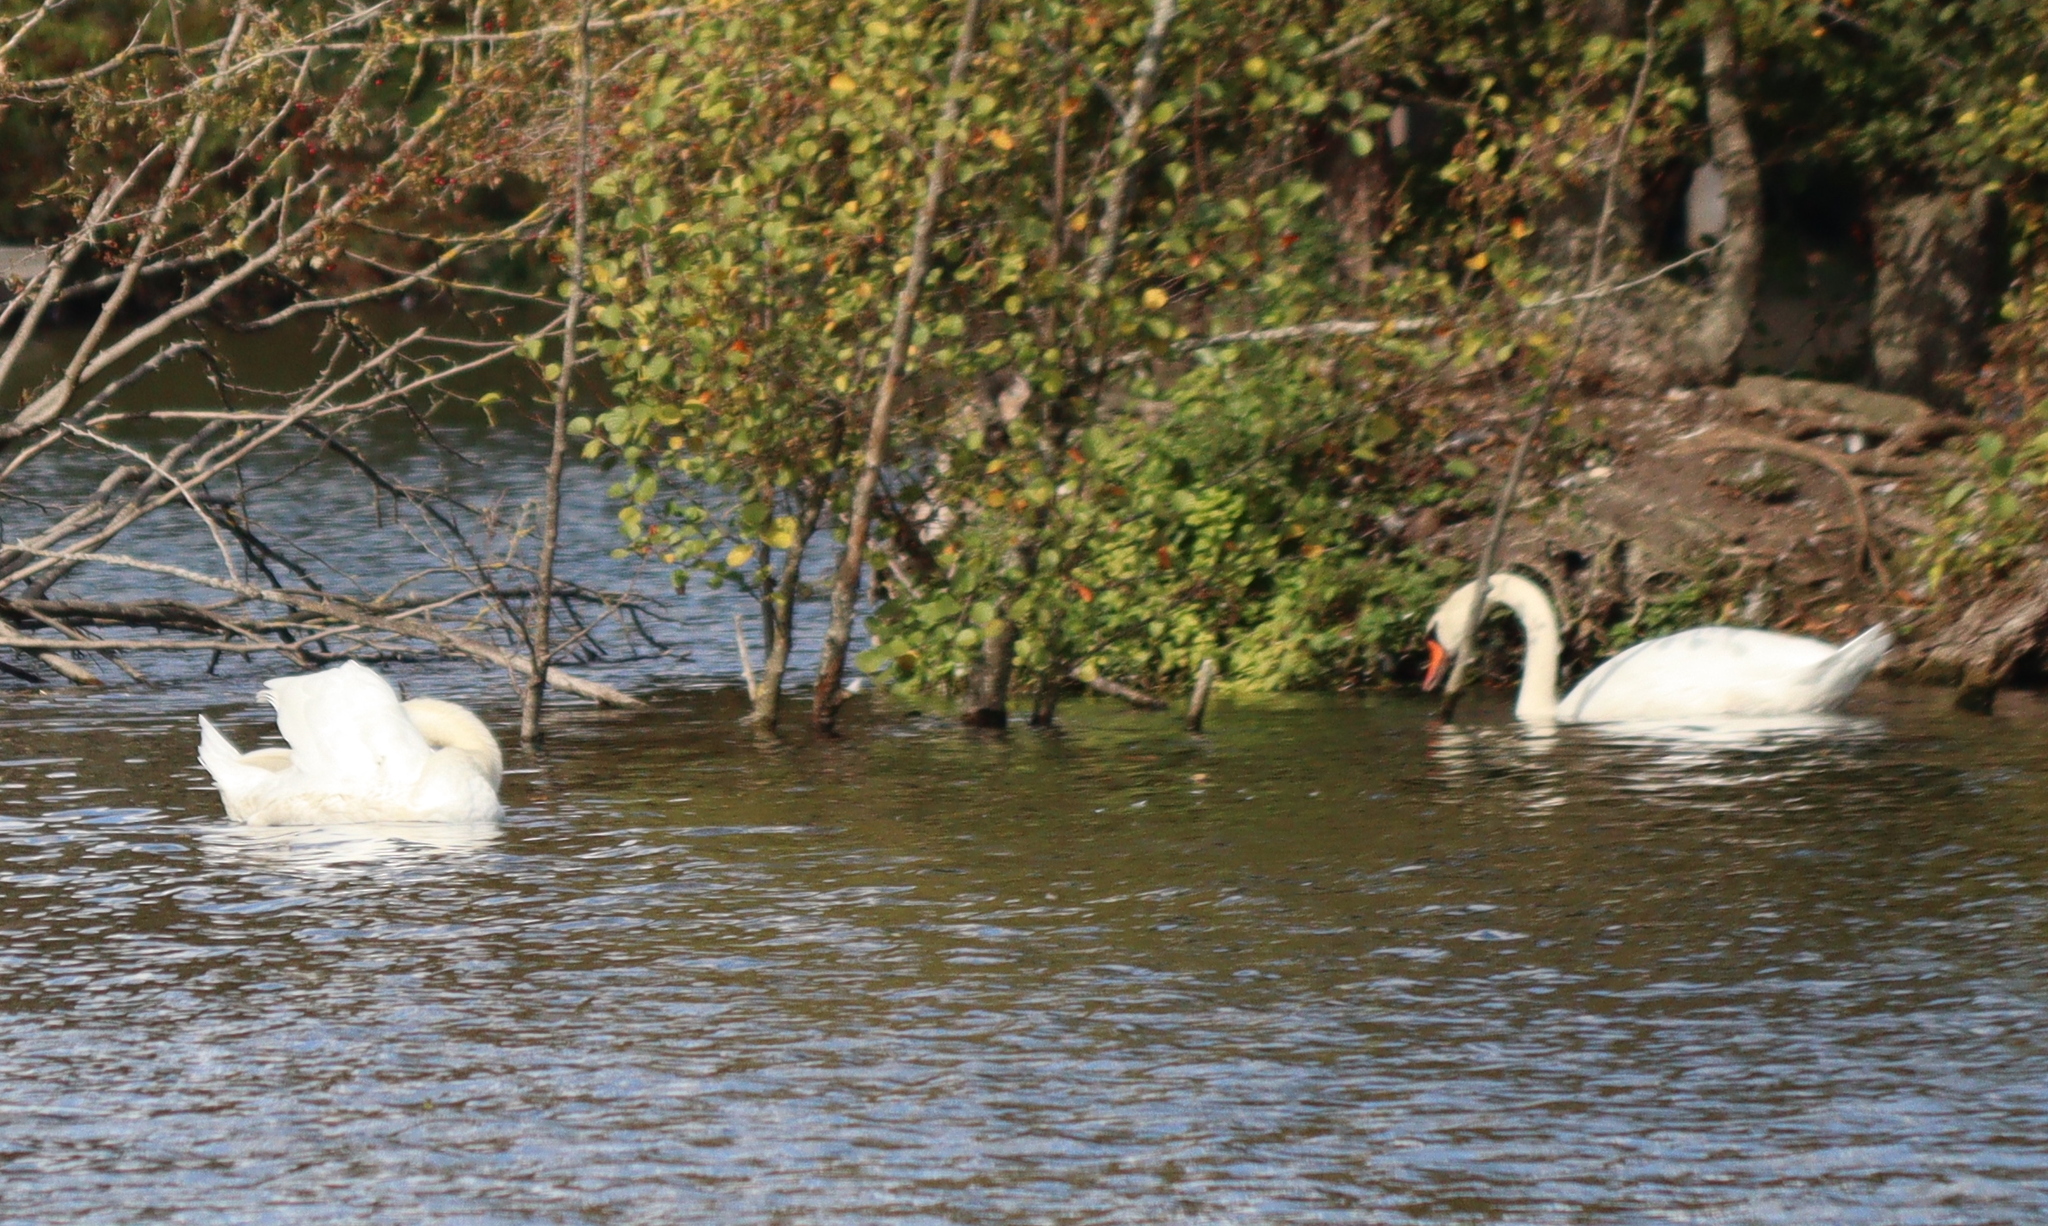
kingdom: Animalia
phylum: Chordata
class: Aves
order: Anseriformes
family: Anatidae
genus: Cygnus
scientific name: Cygnus olor
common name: Mute swan
